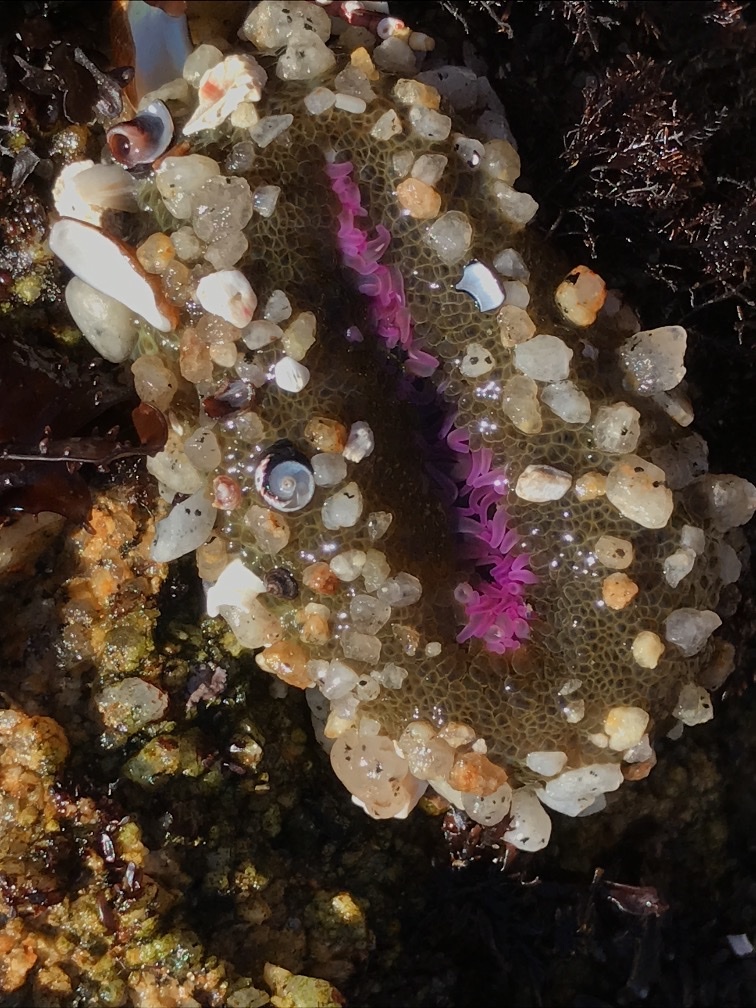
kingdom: Animalia
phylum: Cnidaria
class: Anthozoa
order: Actiniaria
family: Actiniidae
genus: Anthopleura
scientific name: Anthopleura elegantissima
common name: Clonal anemone
